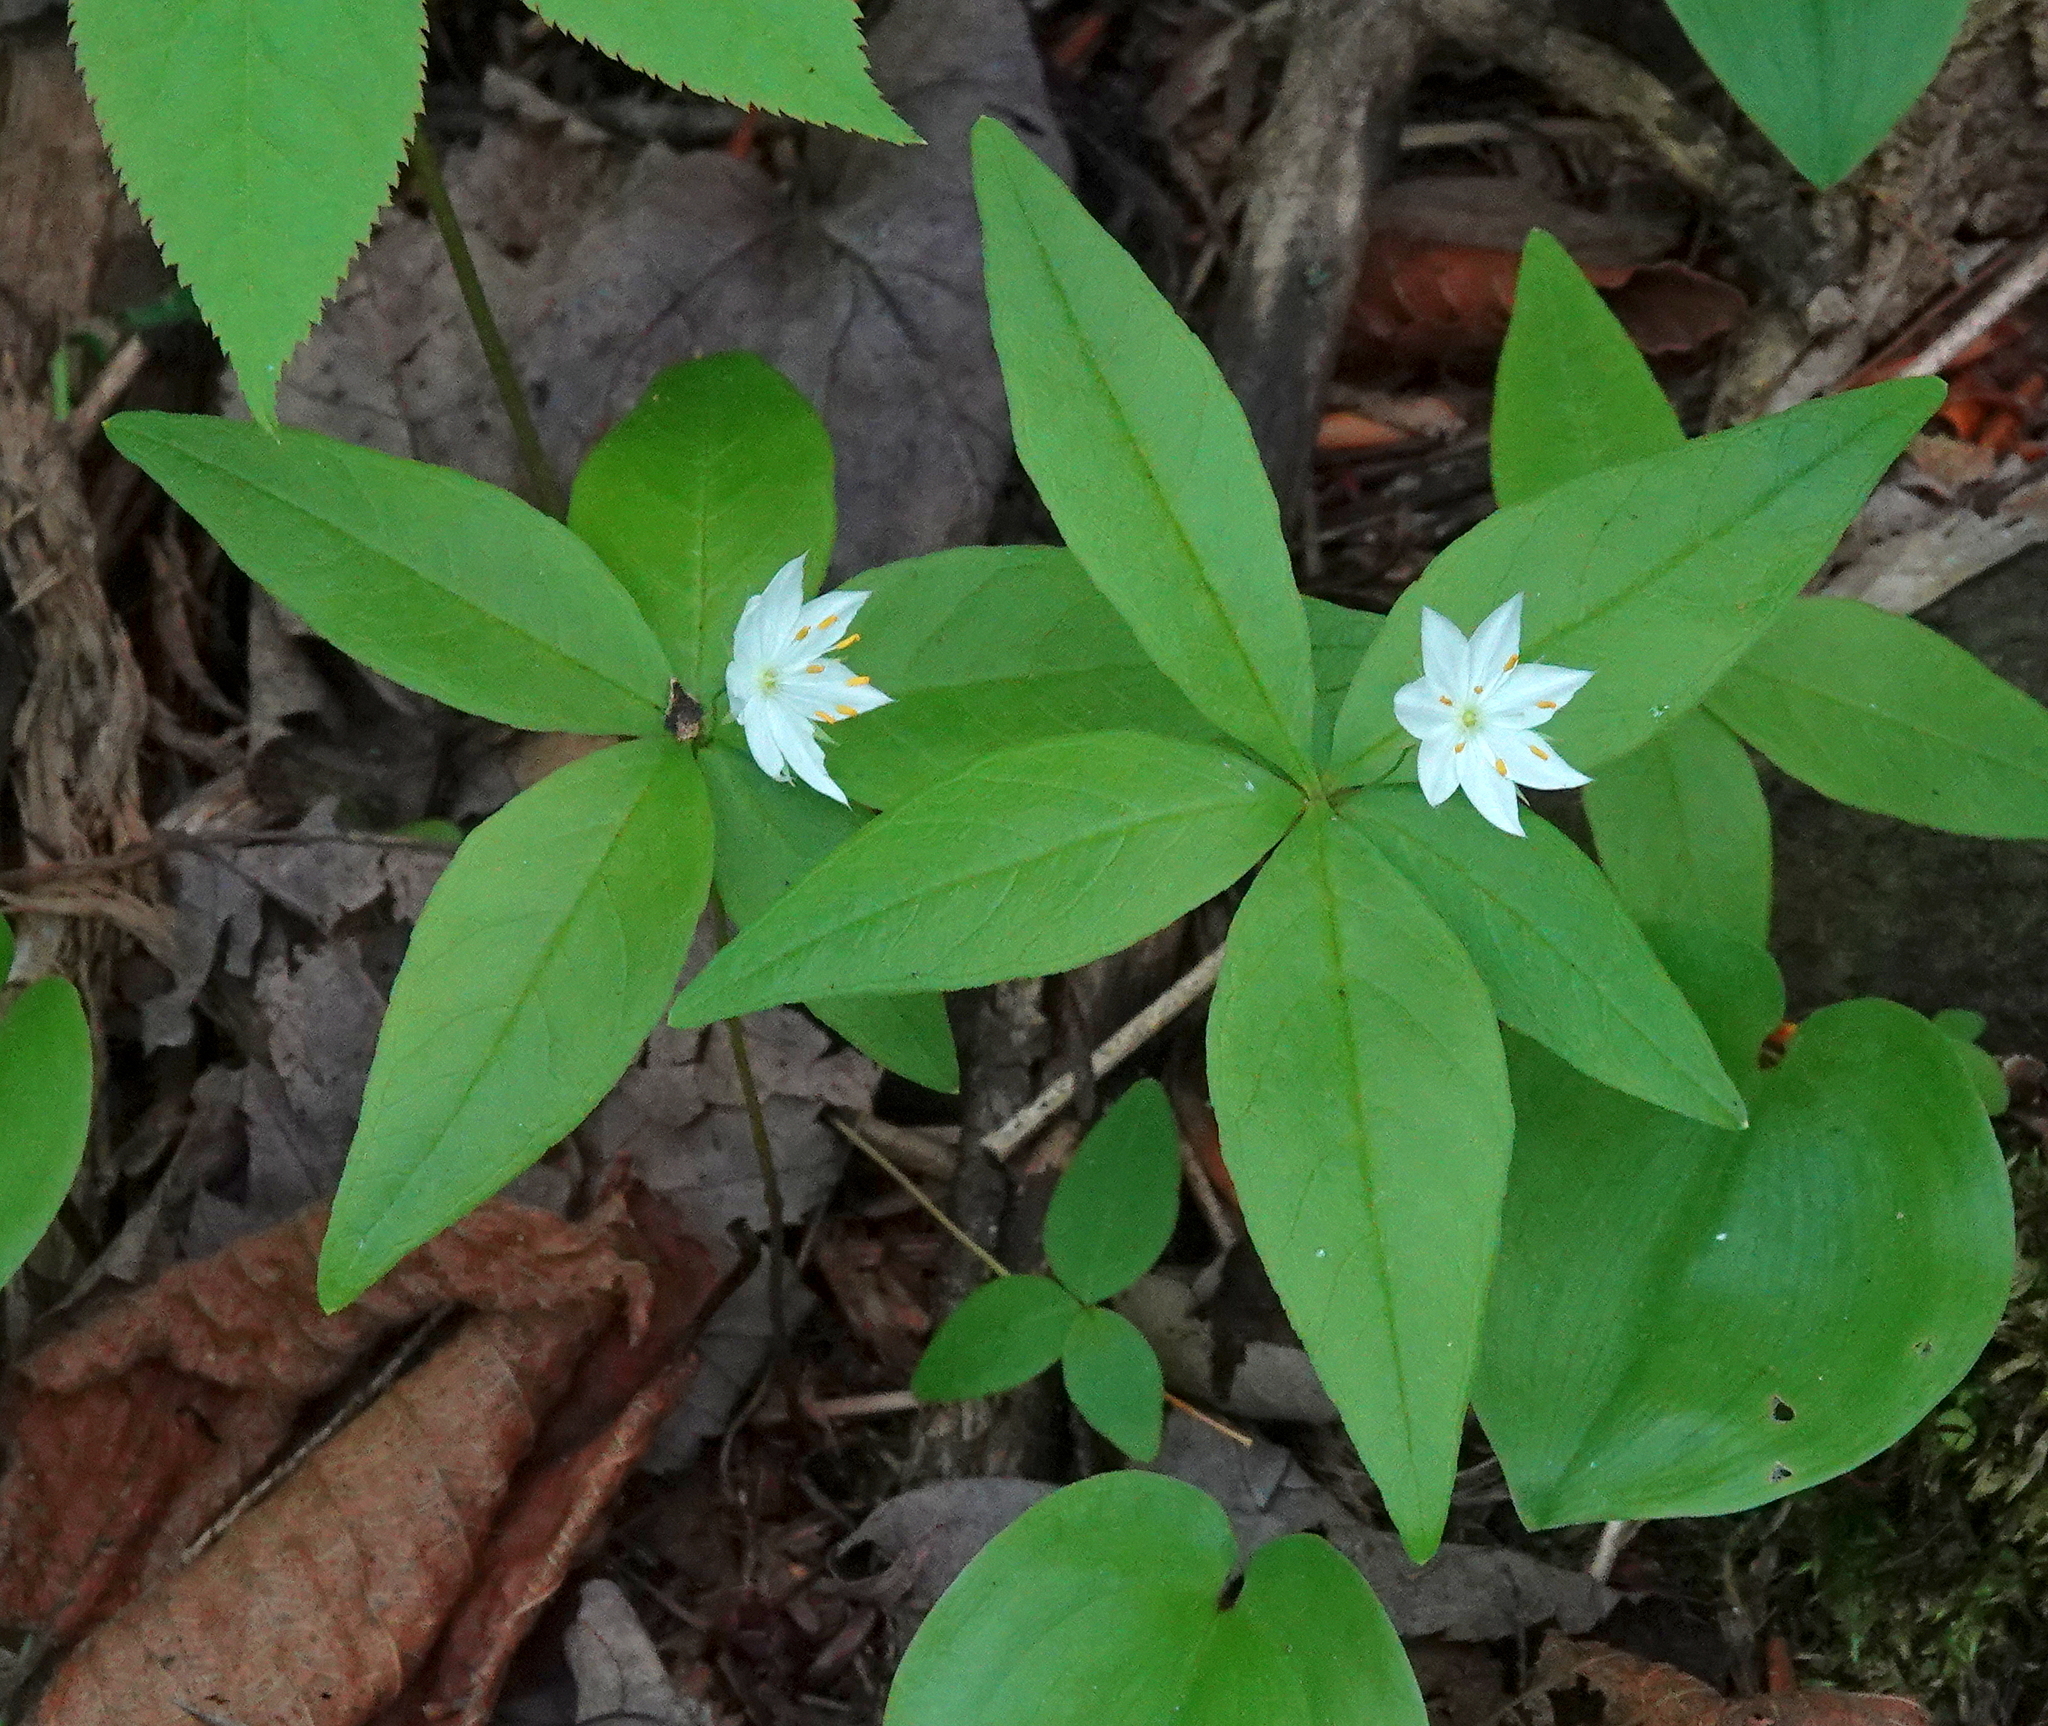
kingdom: Plantae
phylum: Tracheophyta
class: Magnoliopsida
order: Ericales
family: Primulaceae
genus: Lysimachia
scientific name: Lysimachia borealis
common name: American starflower
